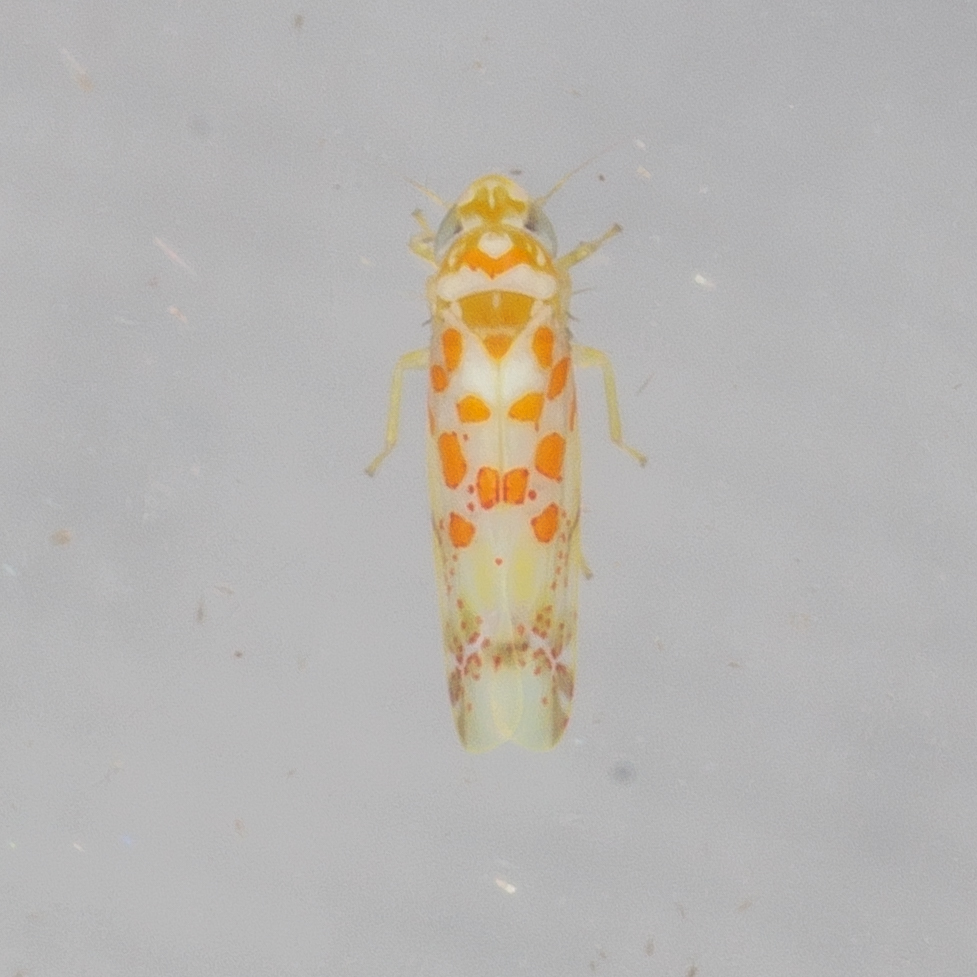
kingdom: Animalia
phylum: Arthropoda
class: Insecta
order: Hemiptera
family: Cicadellidae
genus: Dikrella
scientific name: Dikrella maculata
